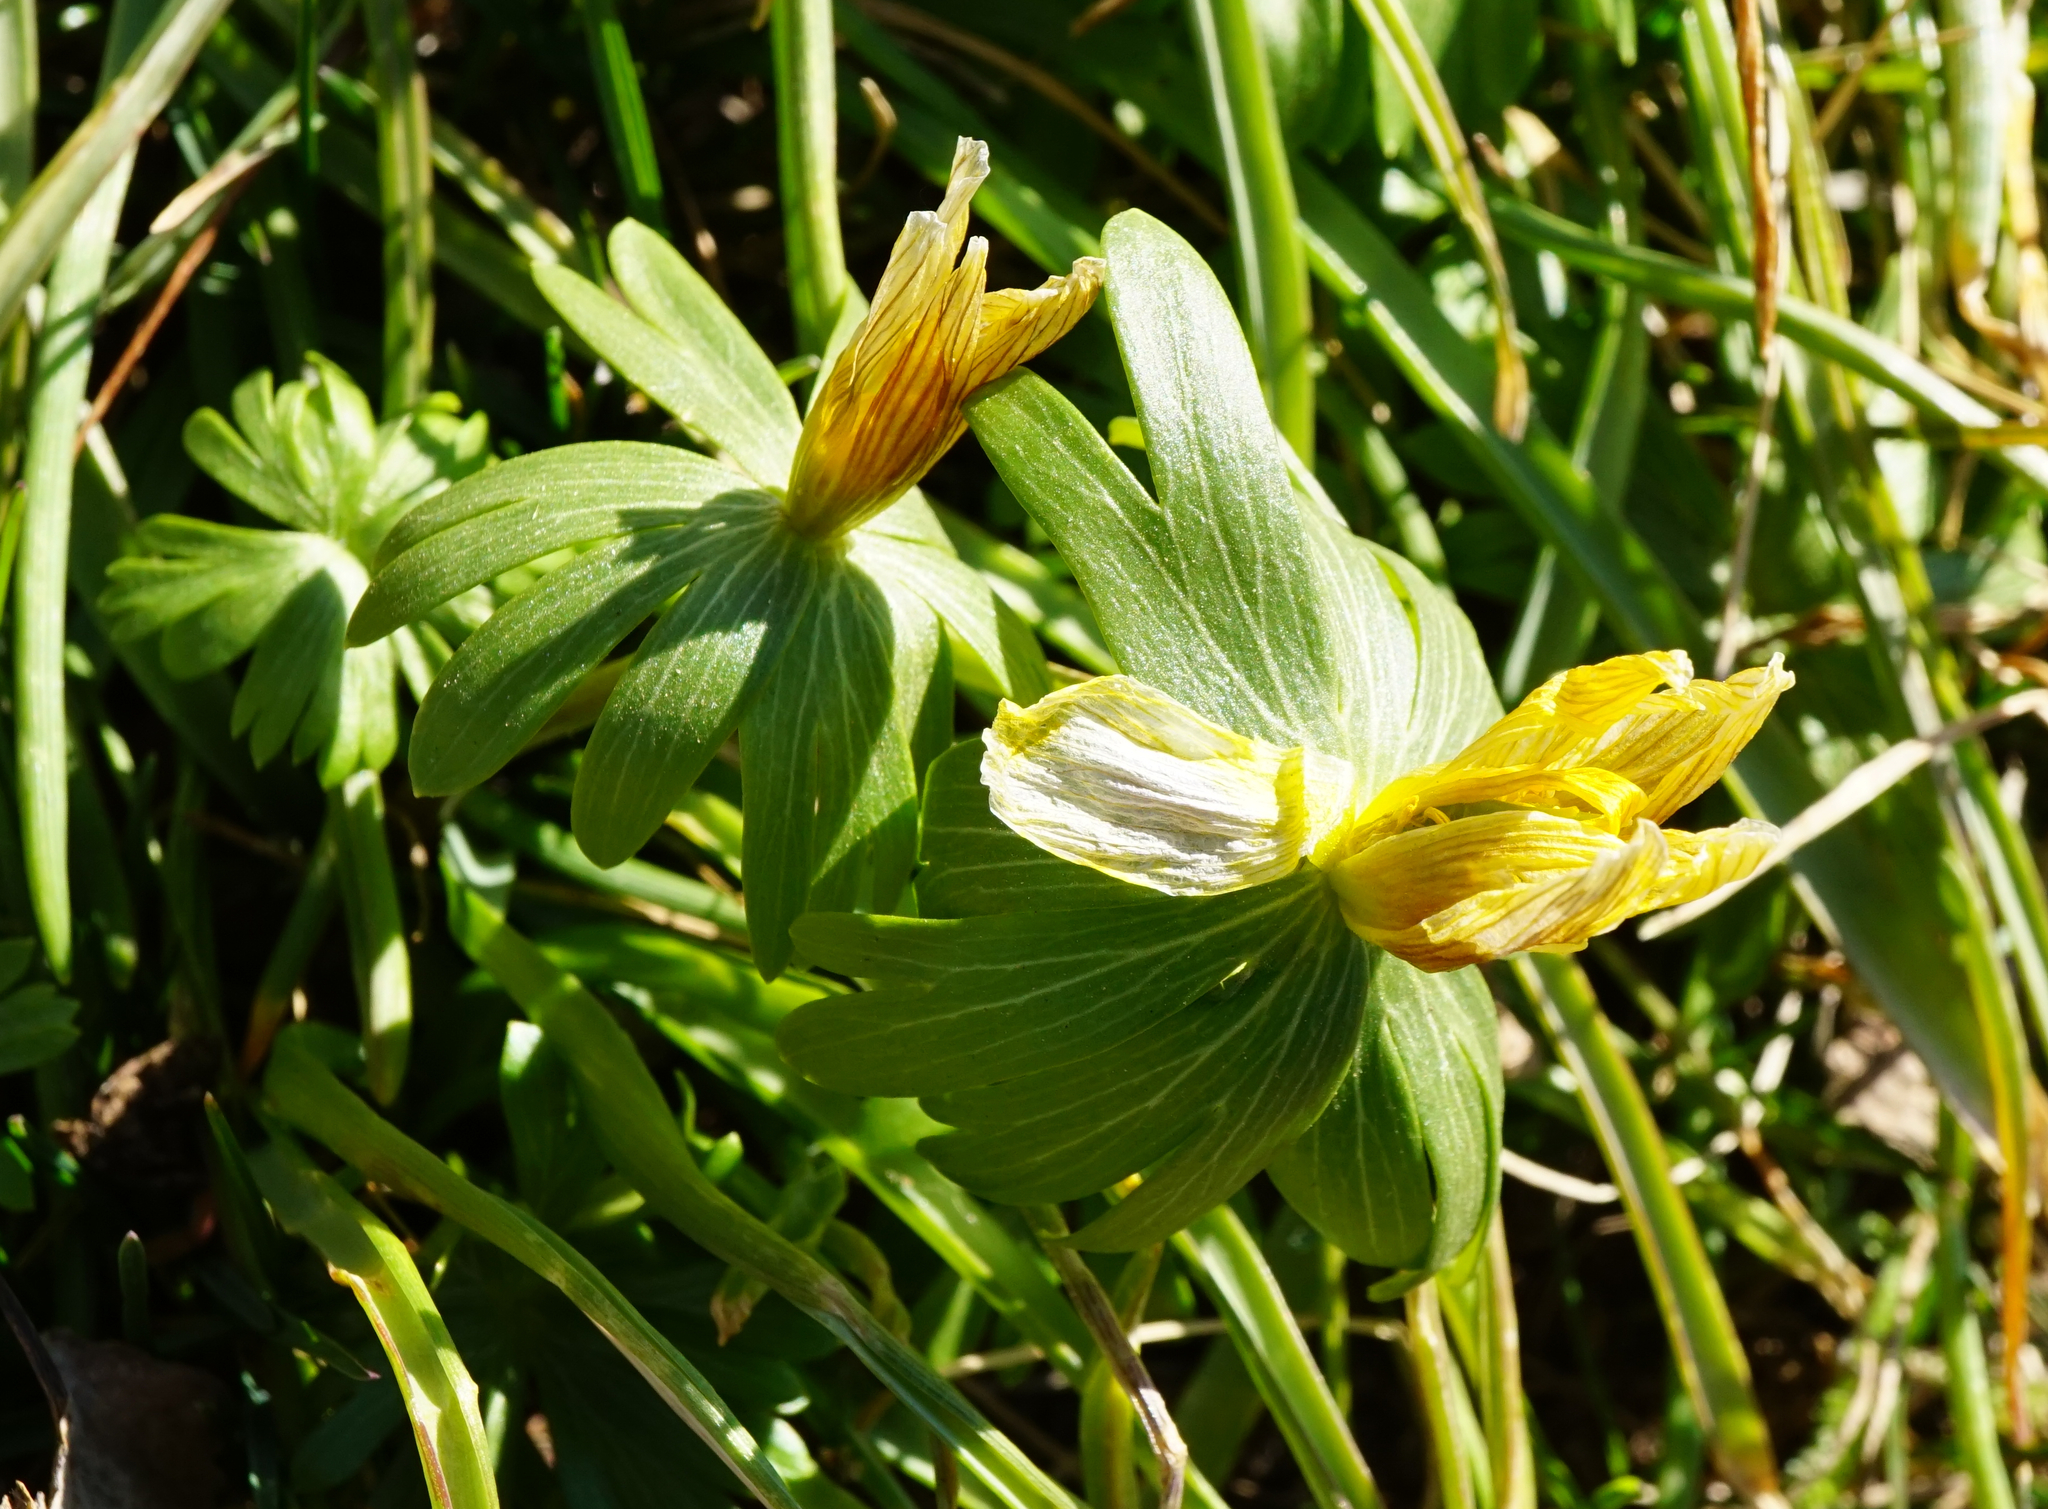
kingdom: Plantae
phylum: Tracheophyta
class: Magnoliopsida
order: Ranunculales
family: Ranunculaceae
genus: Eranthis
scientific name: Eranthis hyemalis
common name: Winter aconite
